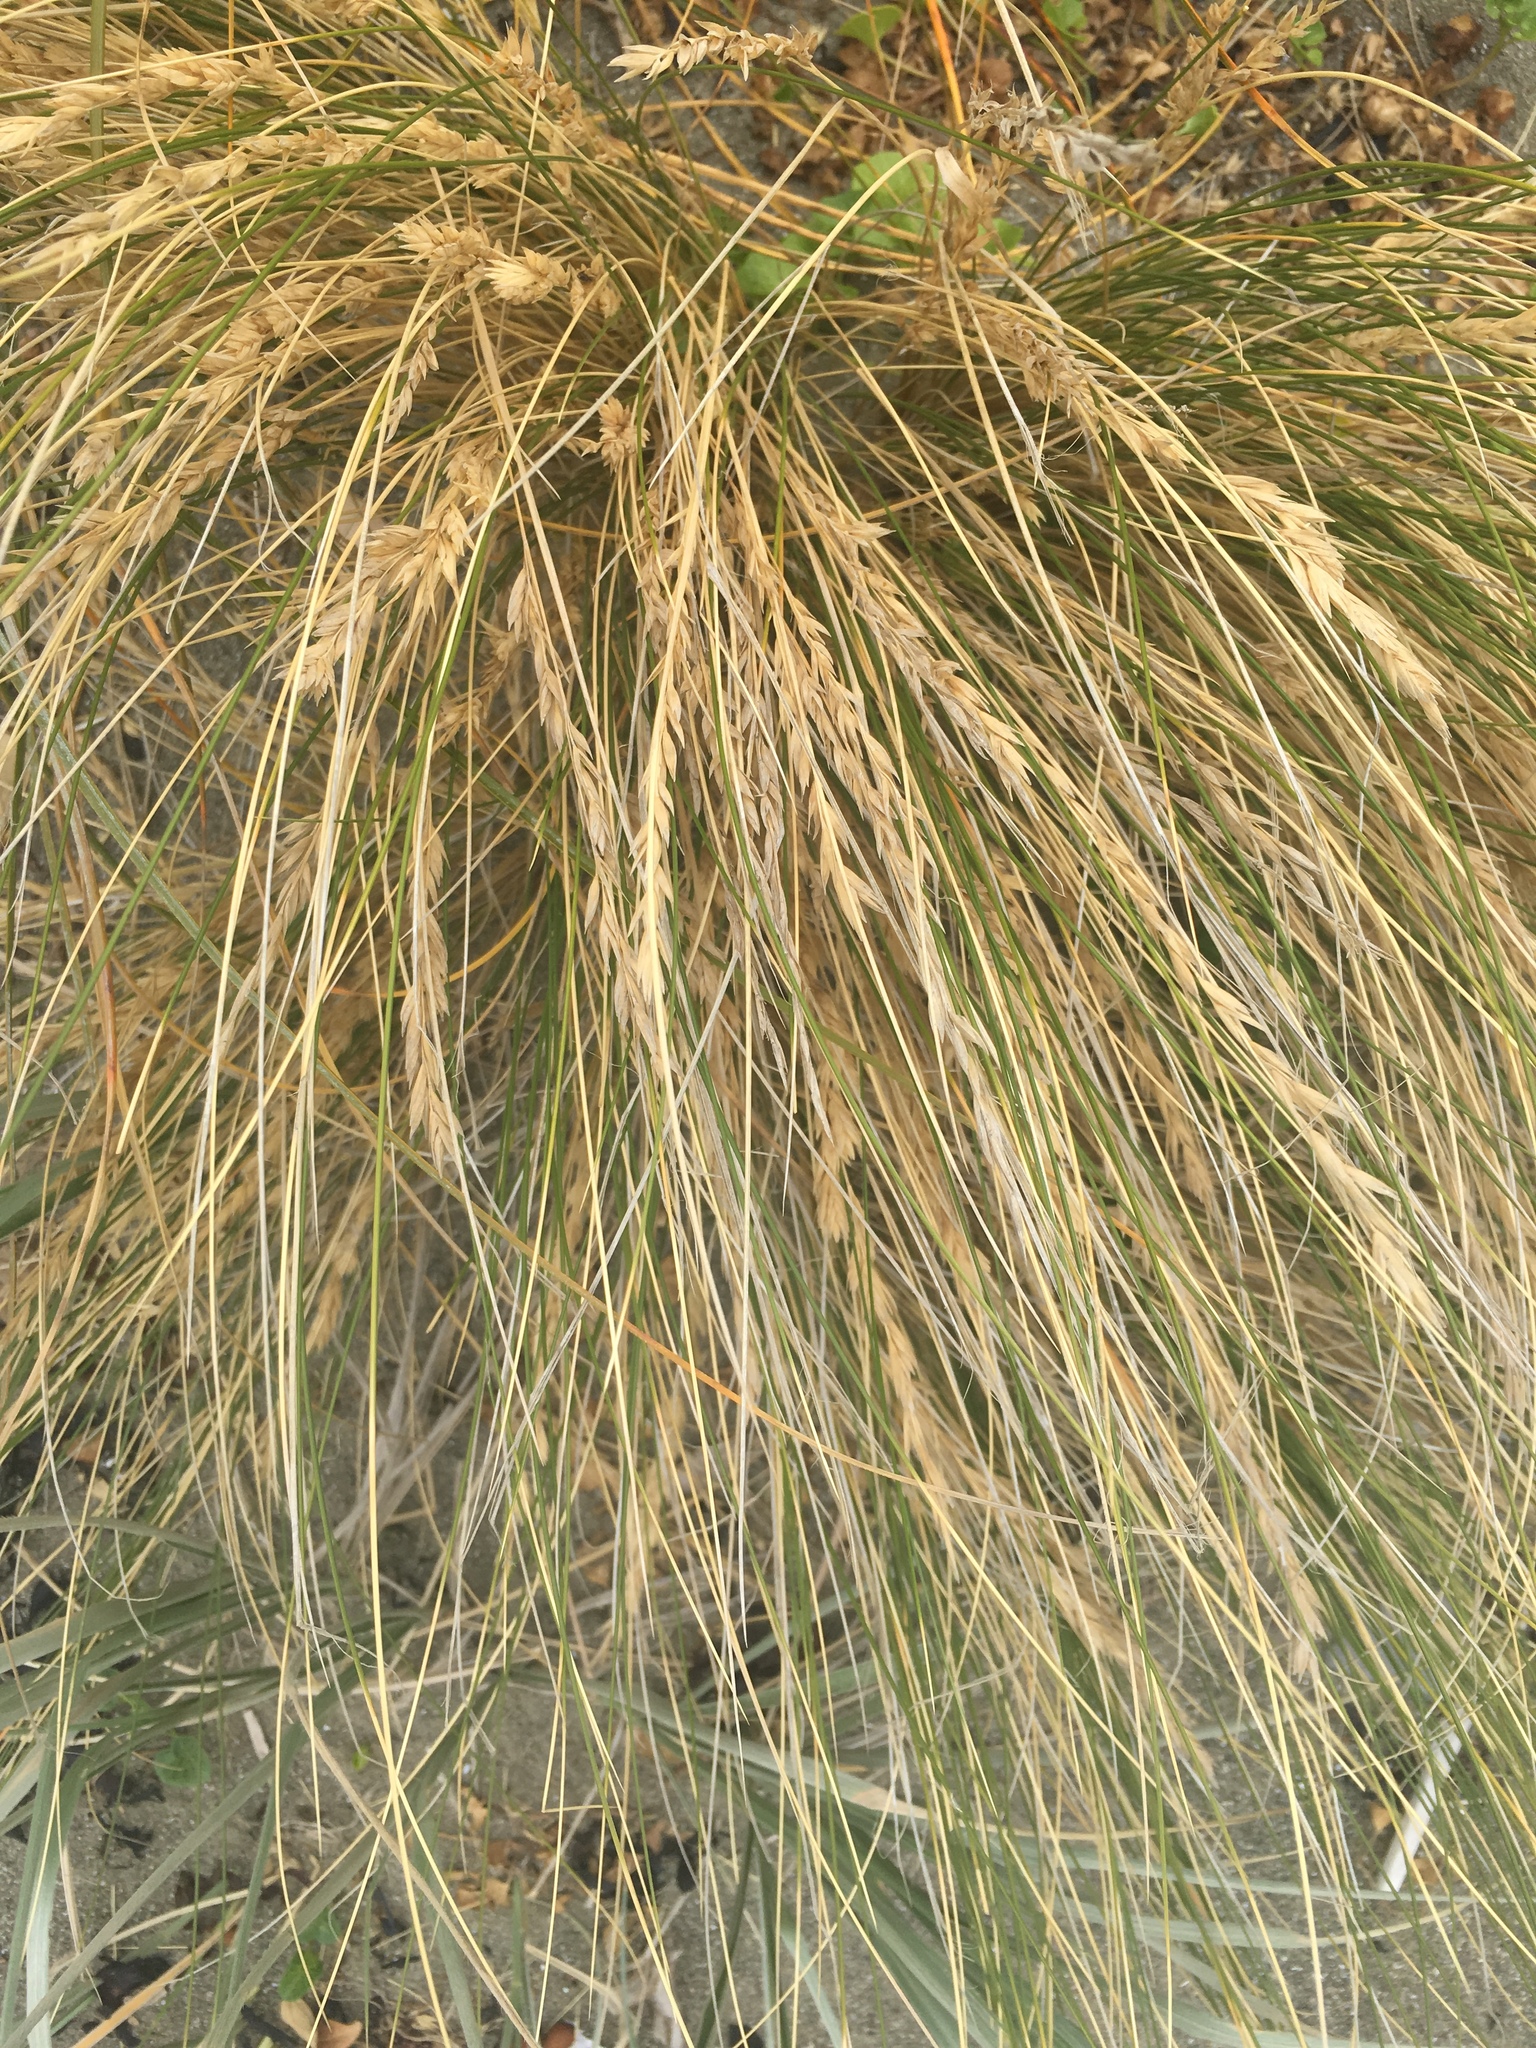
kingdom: Plantae
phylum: Tracheophyta
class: Liliopsida
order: Poales
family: Poaceae
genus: Poa
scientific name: Poa billardierei
